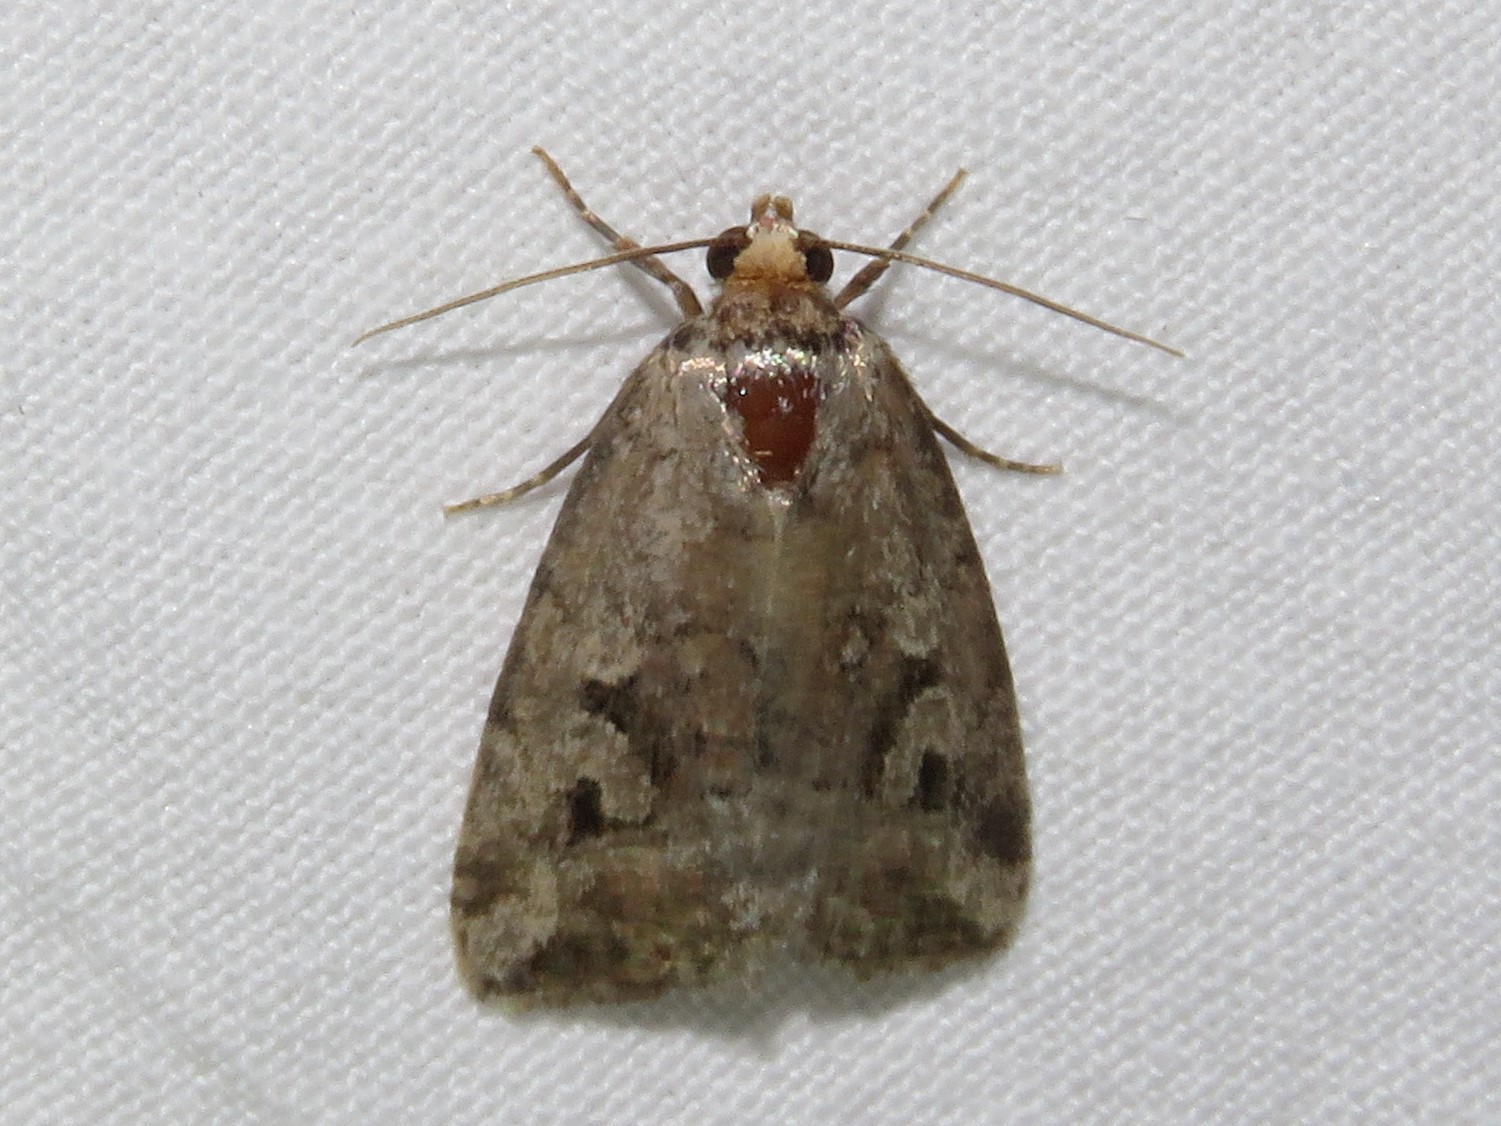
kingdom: Animalia
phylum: Arthropoda
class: Insecta
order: Lepidoptera
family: Noctuidae
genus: Elaphria
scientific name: Elaphria alapallida
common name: Pale-winged midget
